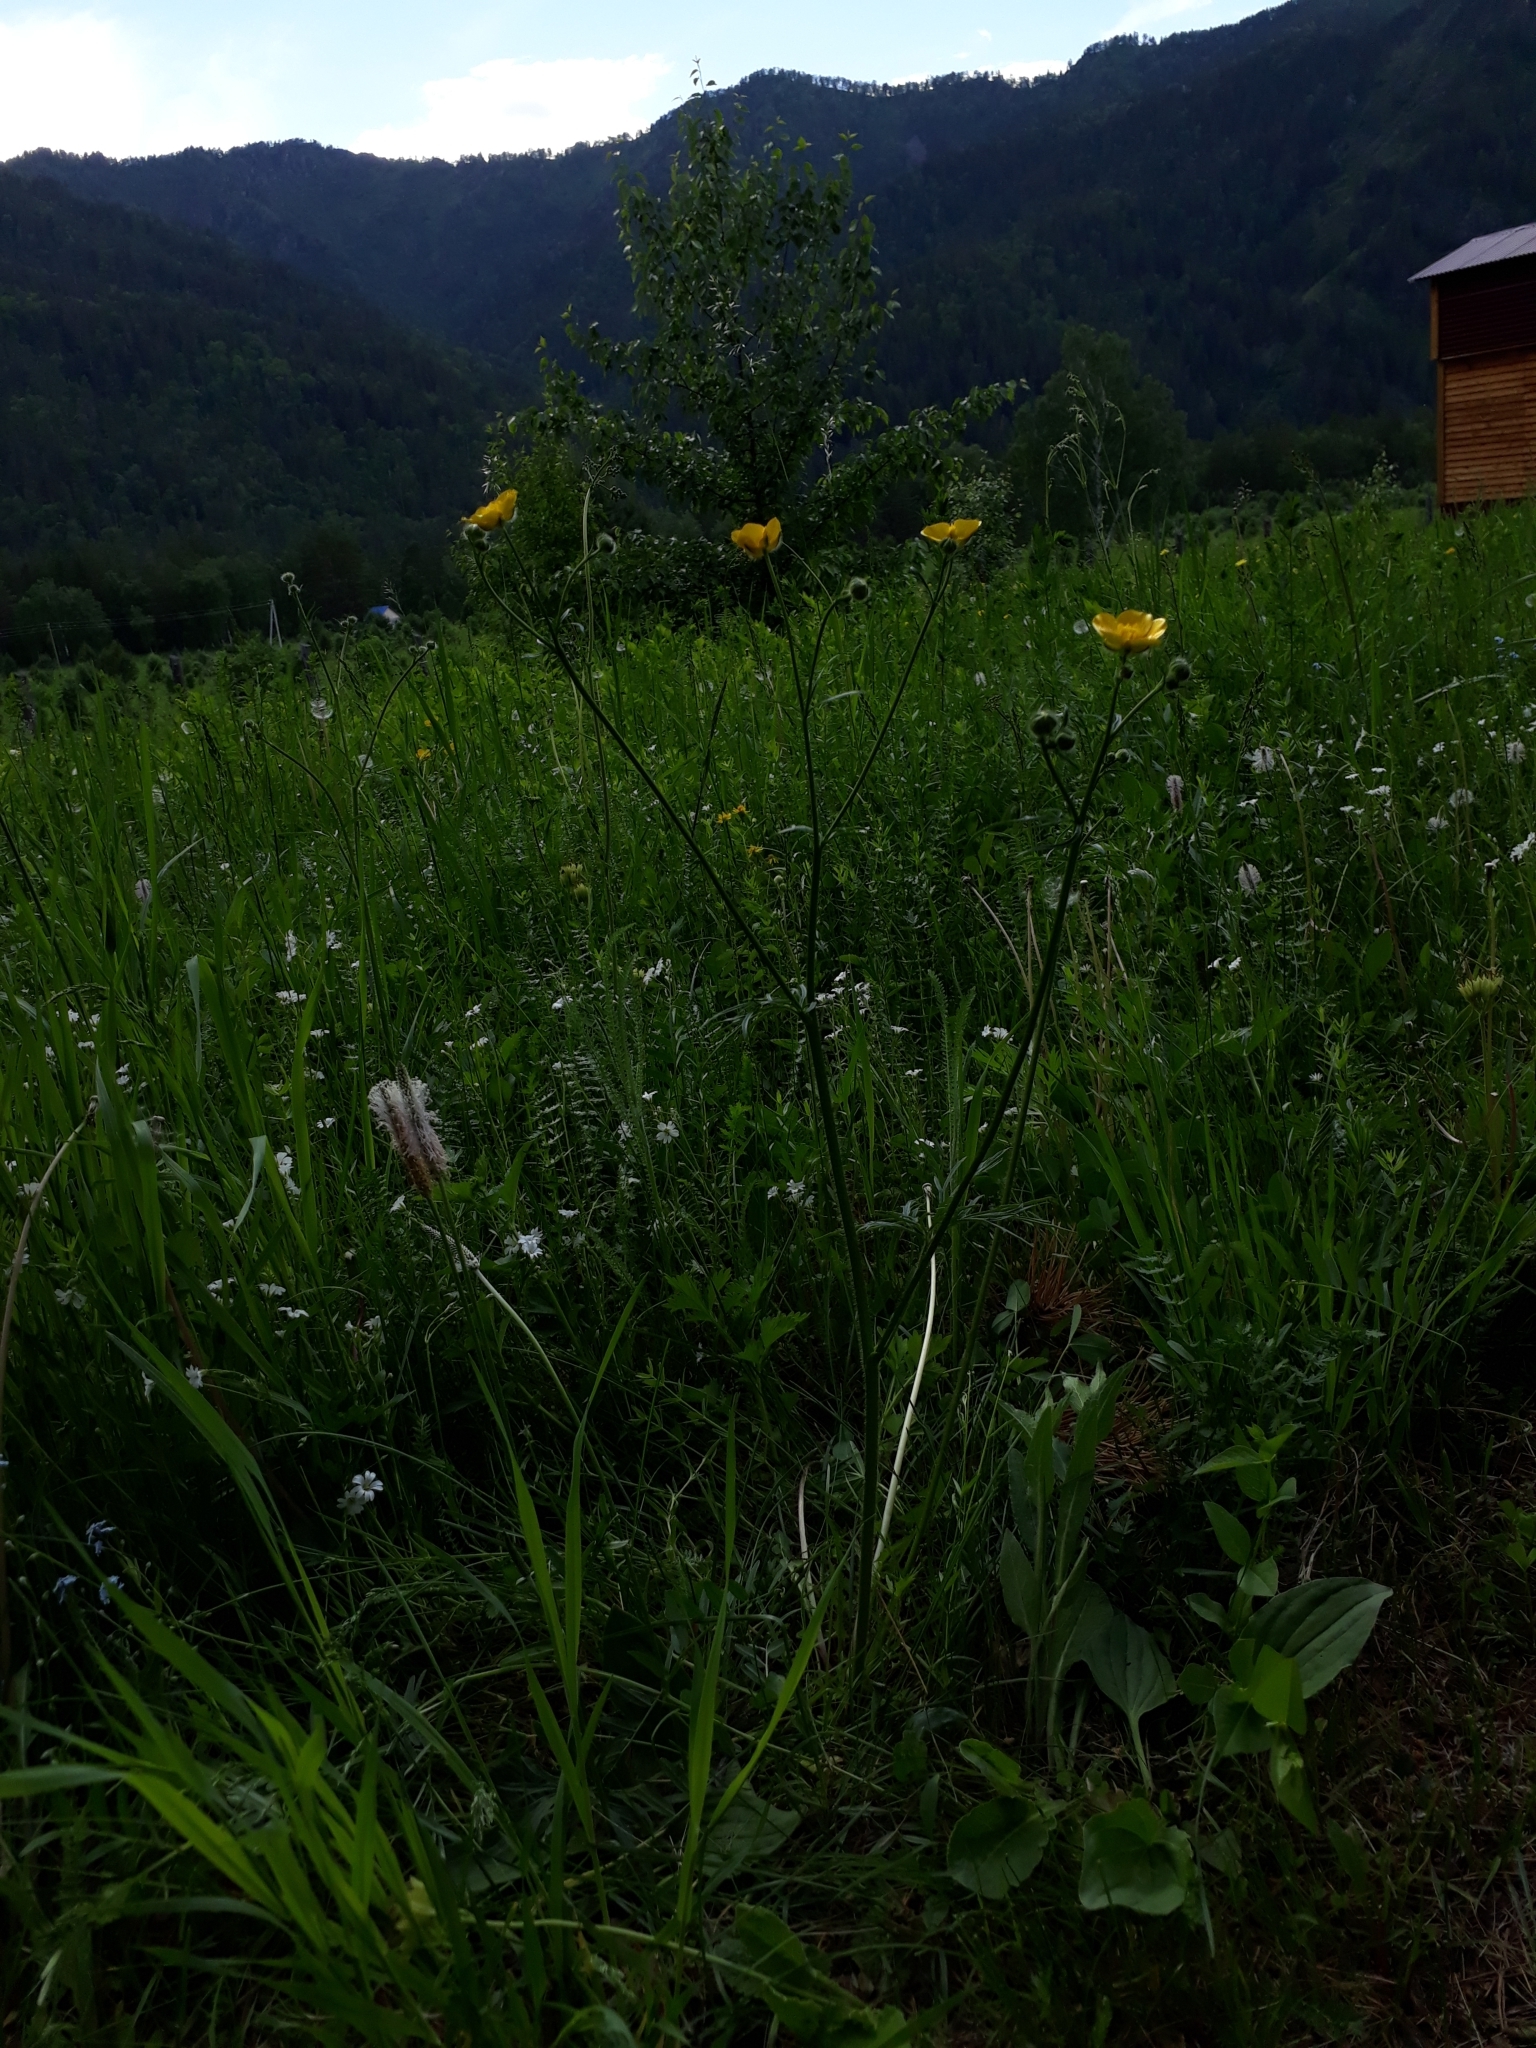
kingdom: Plantae
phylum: Tracheophyta
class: Magnoliopsida
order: Ranunculales
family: Ranunculaceae
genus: Ranunculus
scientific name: Ranunculus polyanthemos
